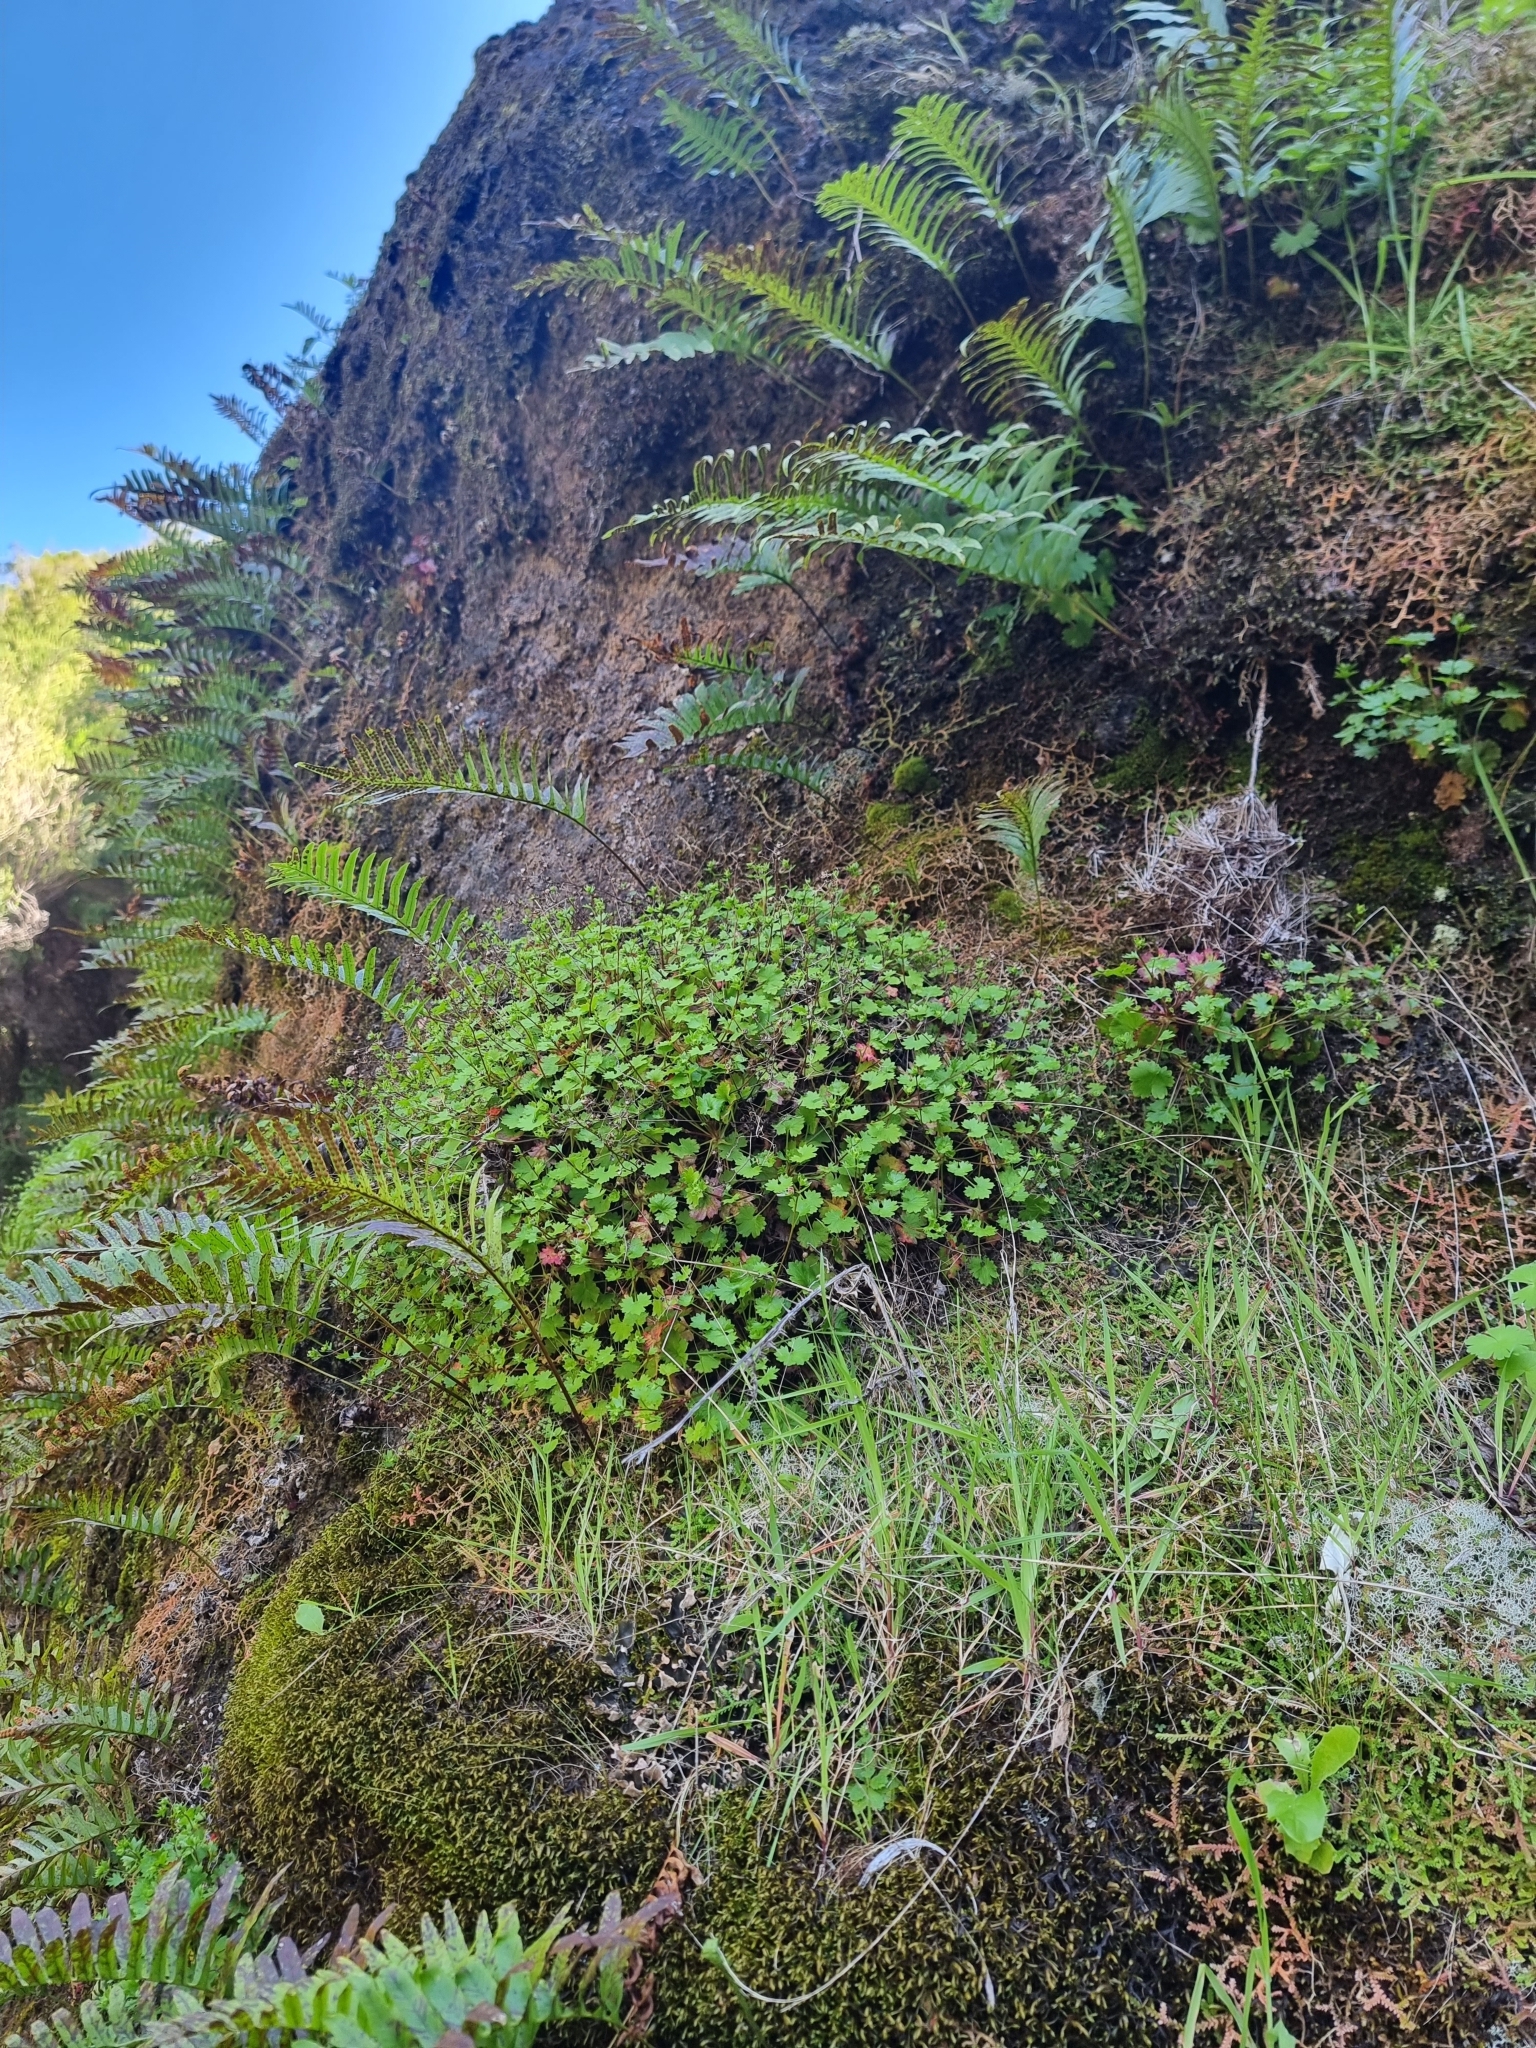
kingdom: Plantae
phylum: Tracheophyta
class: Magnoliopsida
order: Saxifragales
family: Saxifragaceae
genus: Saxifraga
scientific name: Saxifraga maderensis
